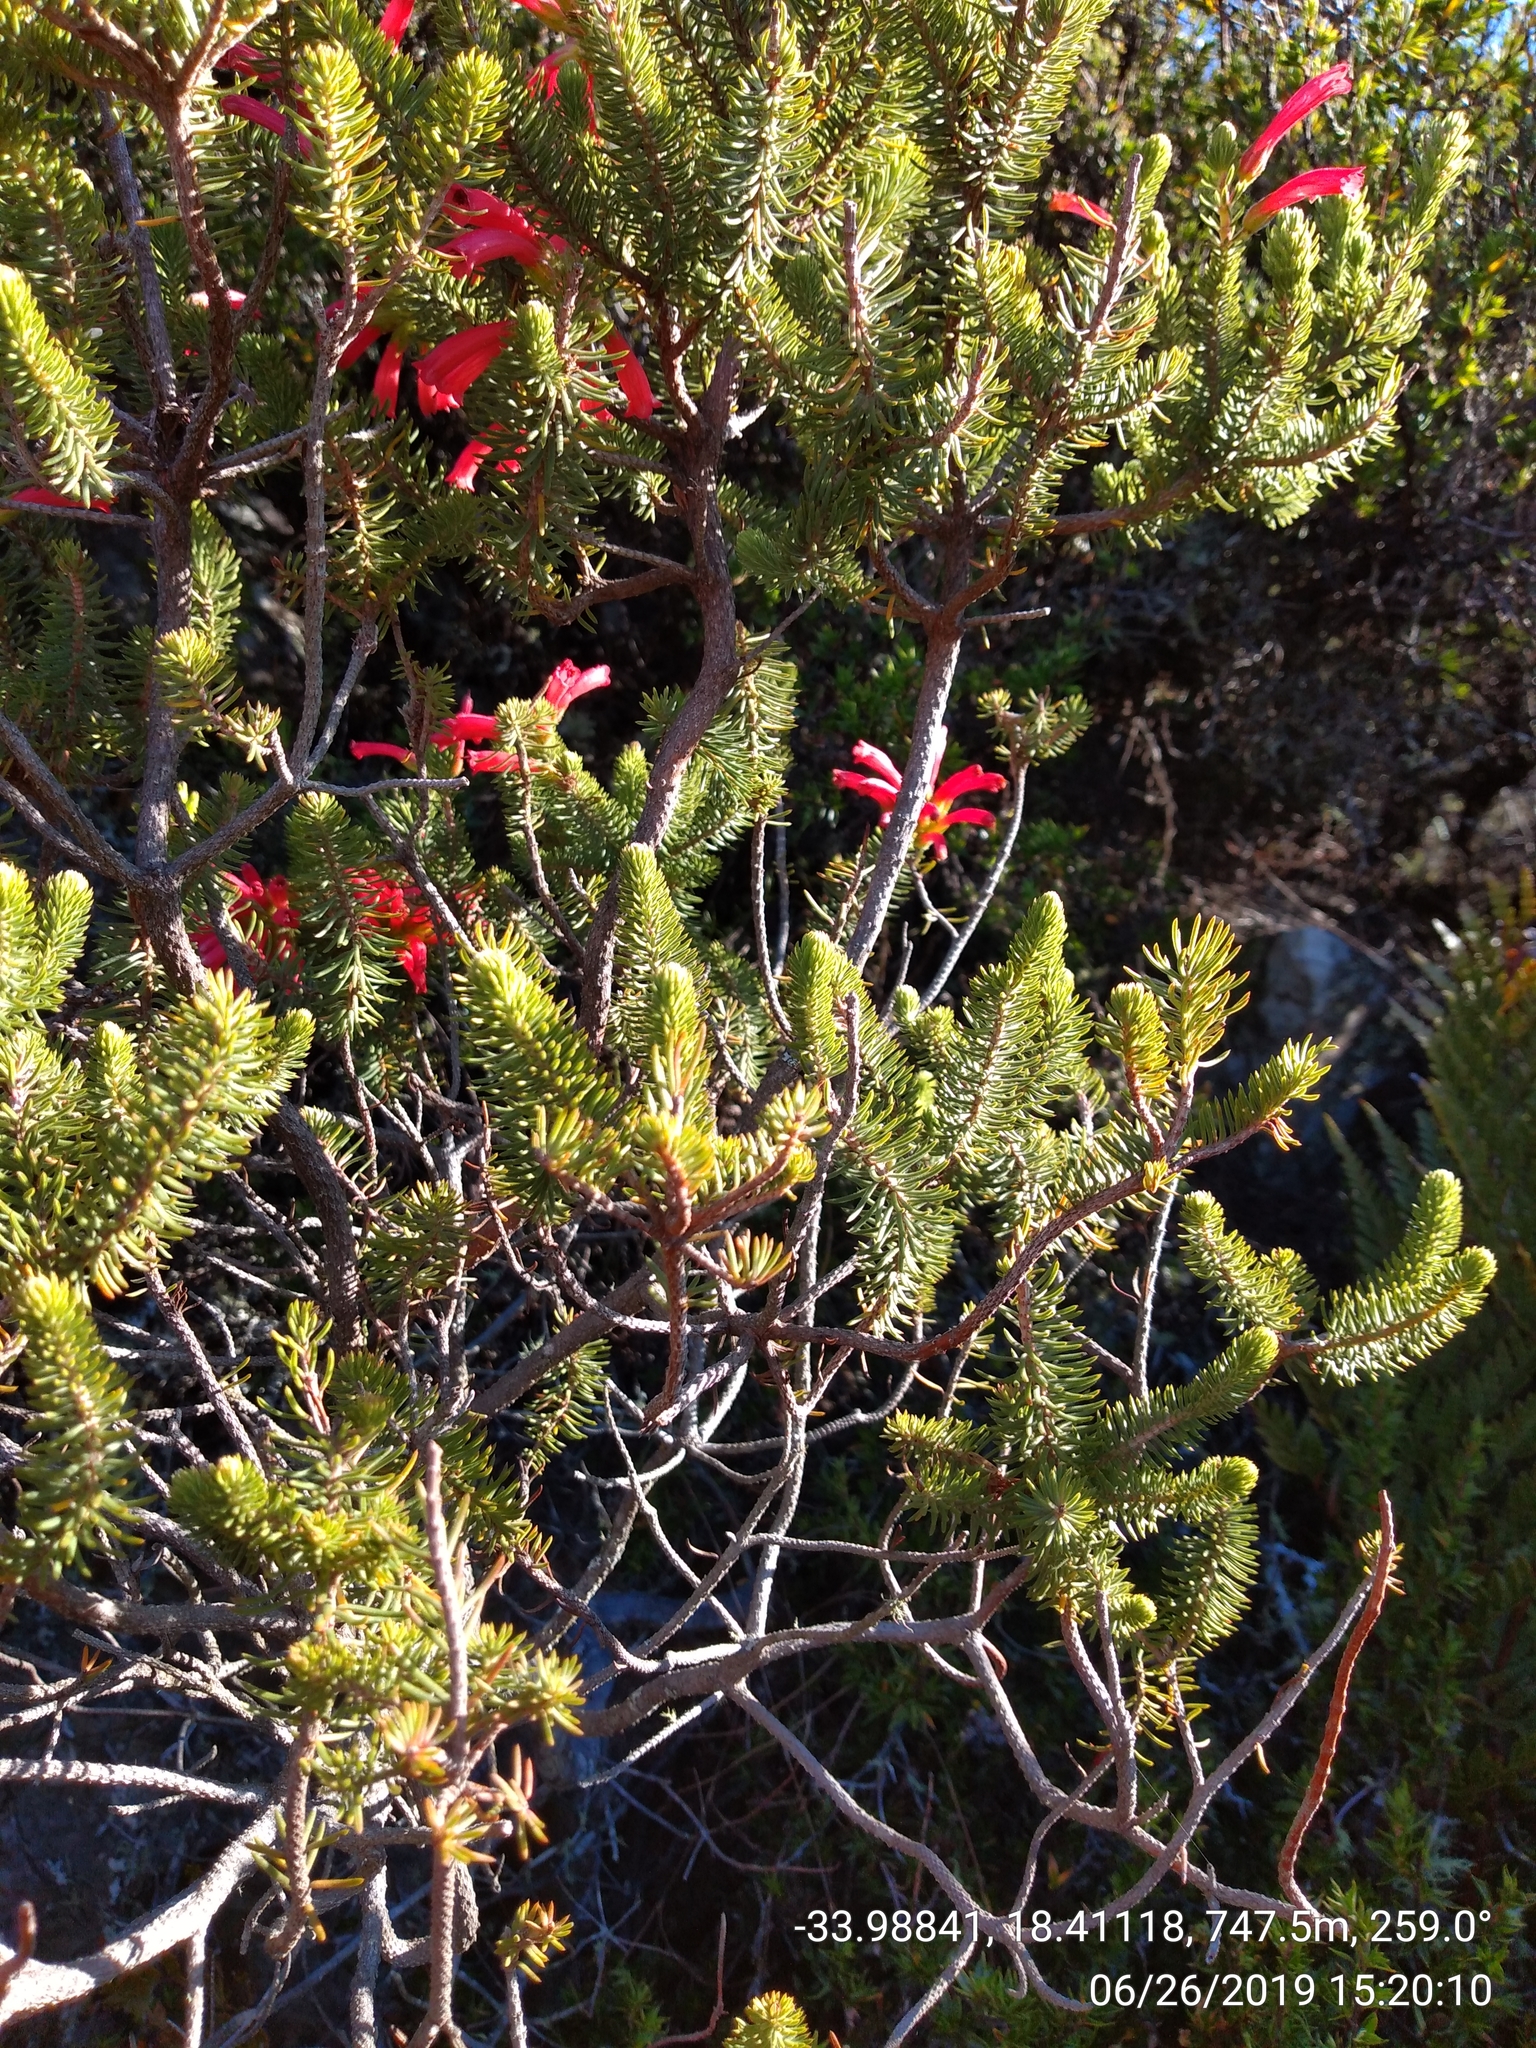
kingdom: Plantae
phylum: Tracheophyta
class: Magnoliopsida
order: Ericales
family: Ericaceae
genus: Erica
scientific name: Erica abietina
